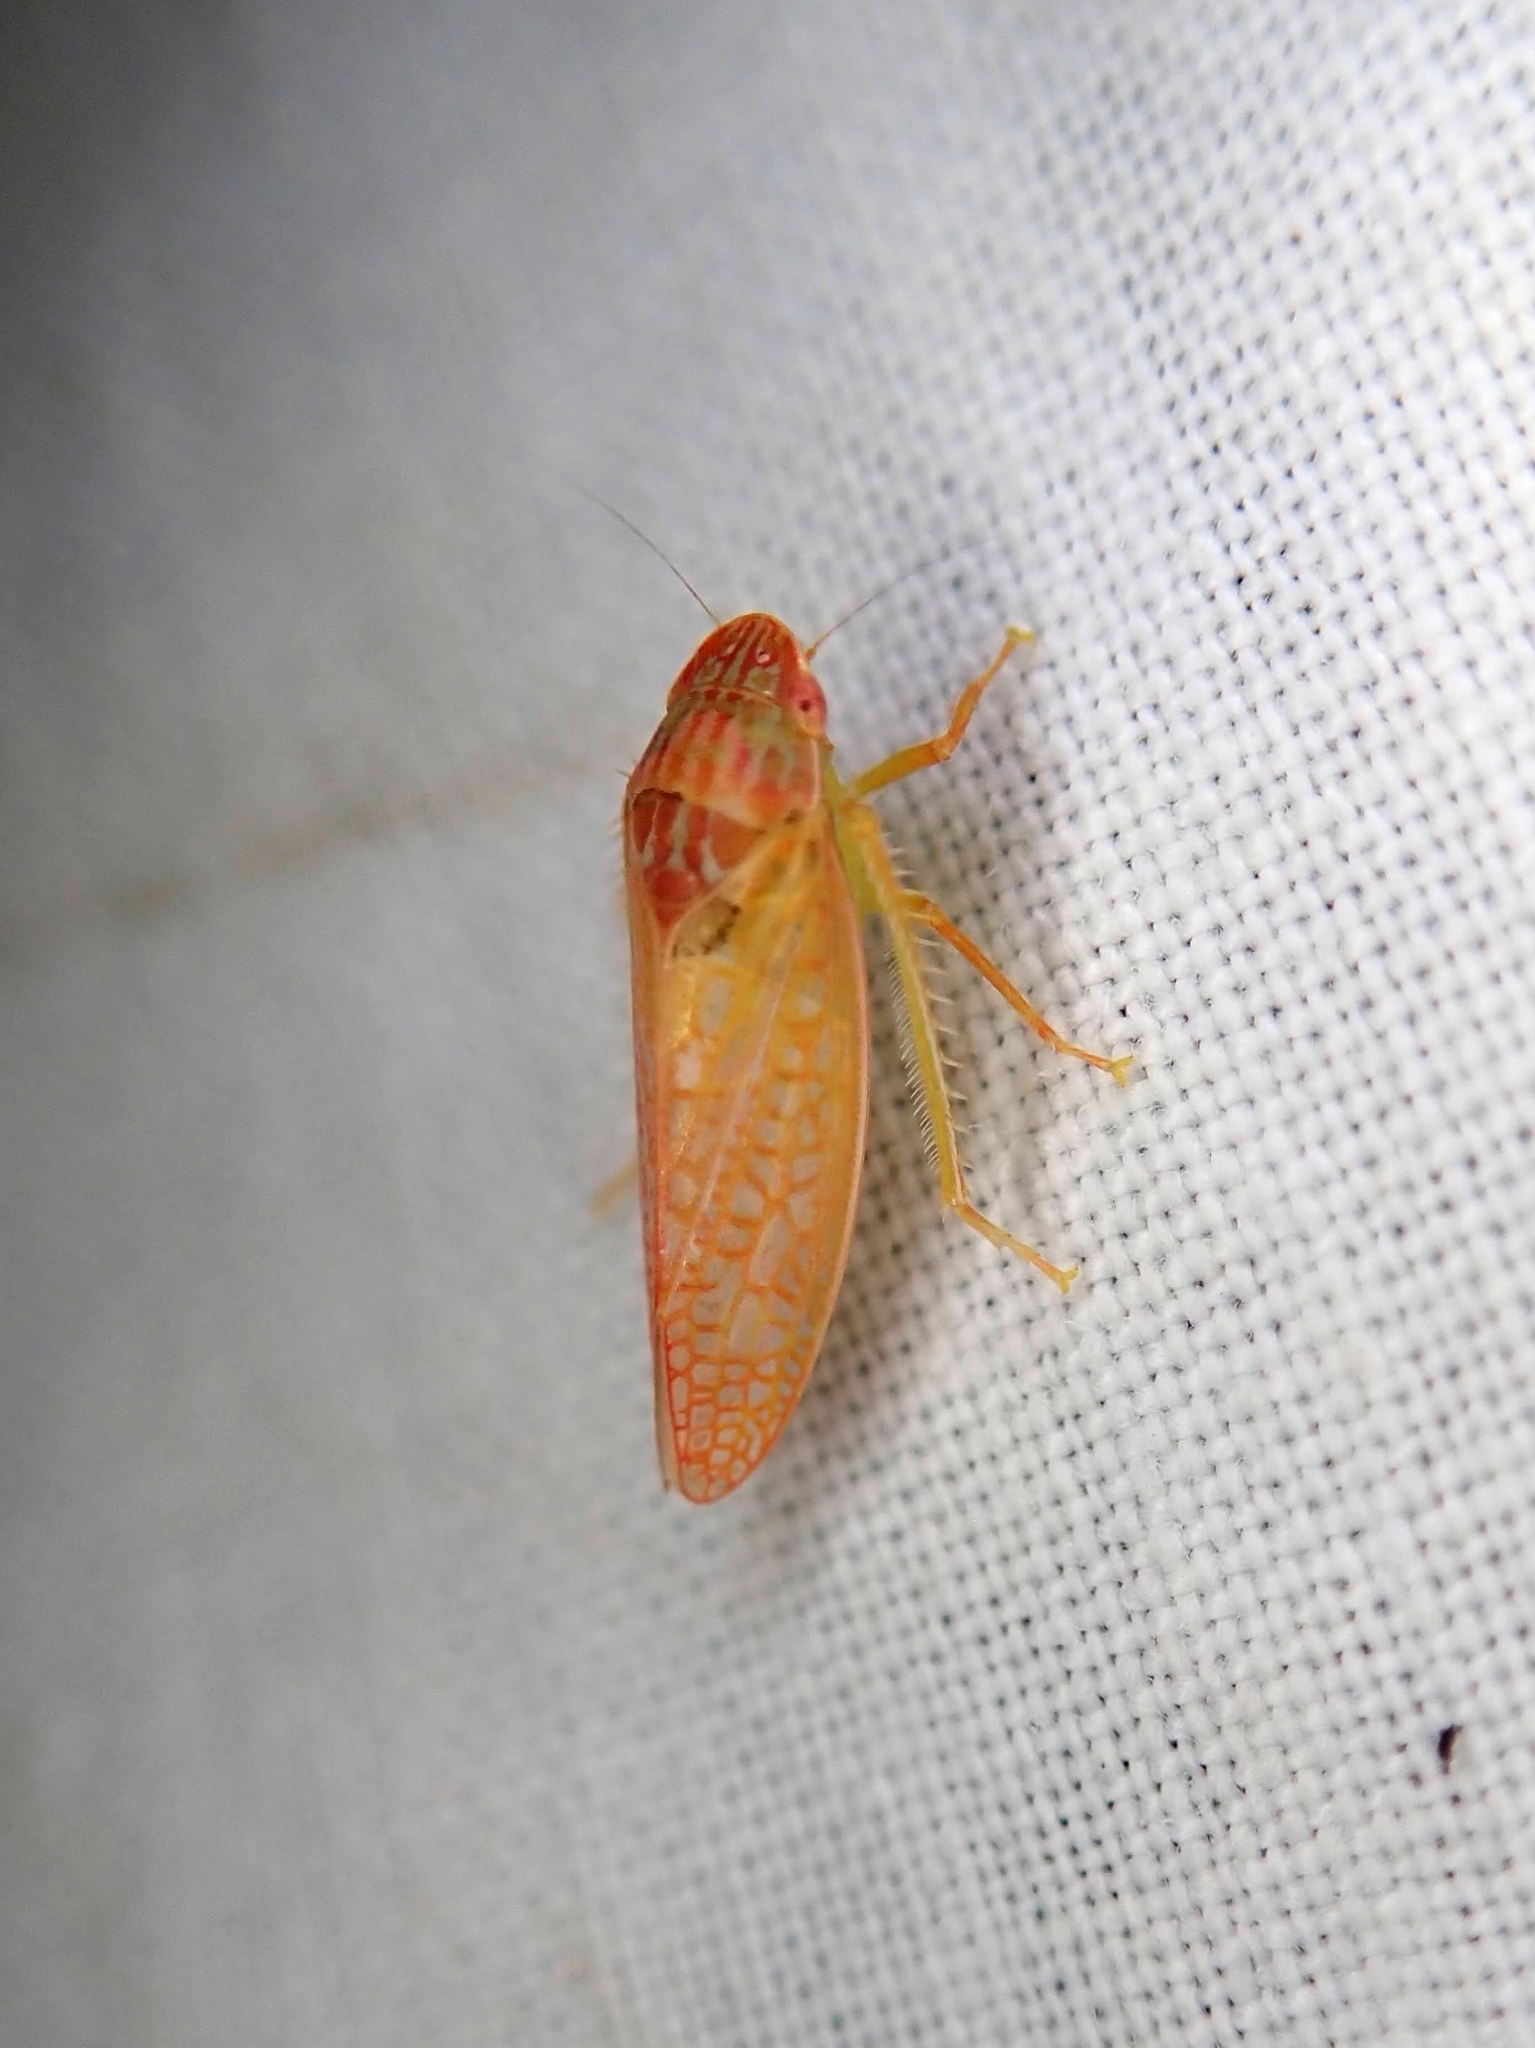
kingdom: Animalia
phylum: Arthropoda
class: Insecta
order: Hemiptera
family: Cicadellidae
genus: Gyponana
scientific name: Gyponana gladia
